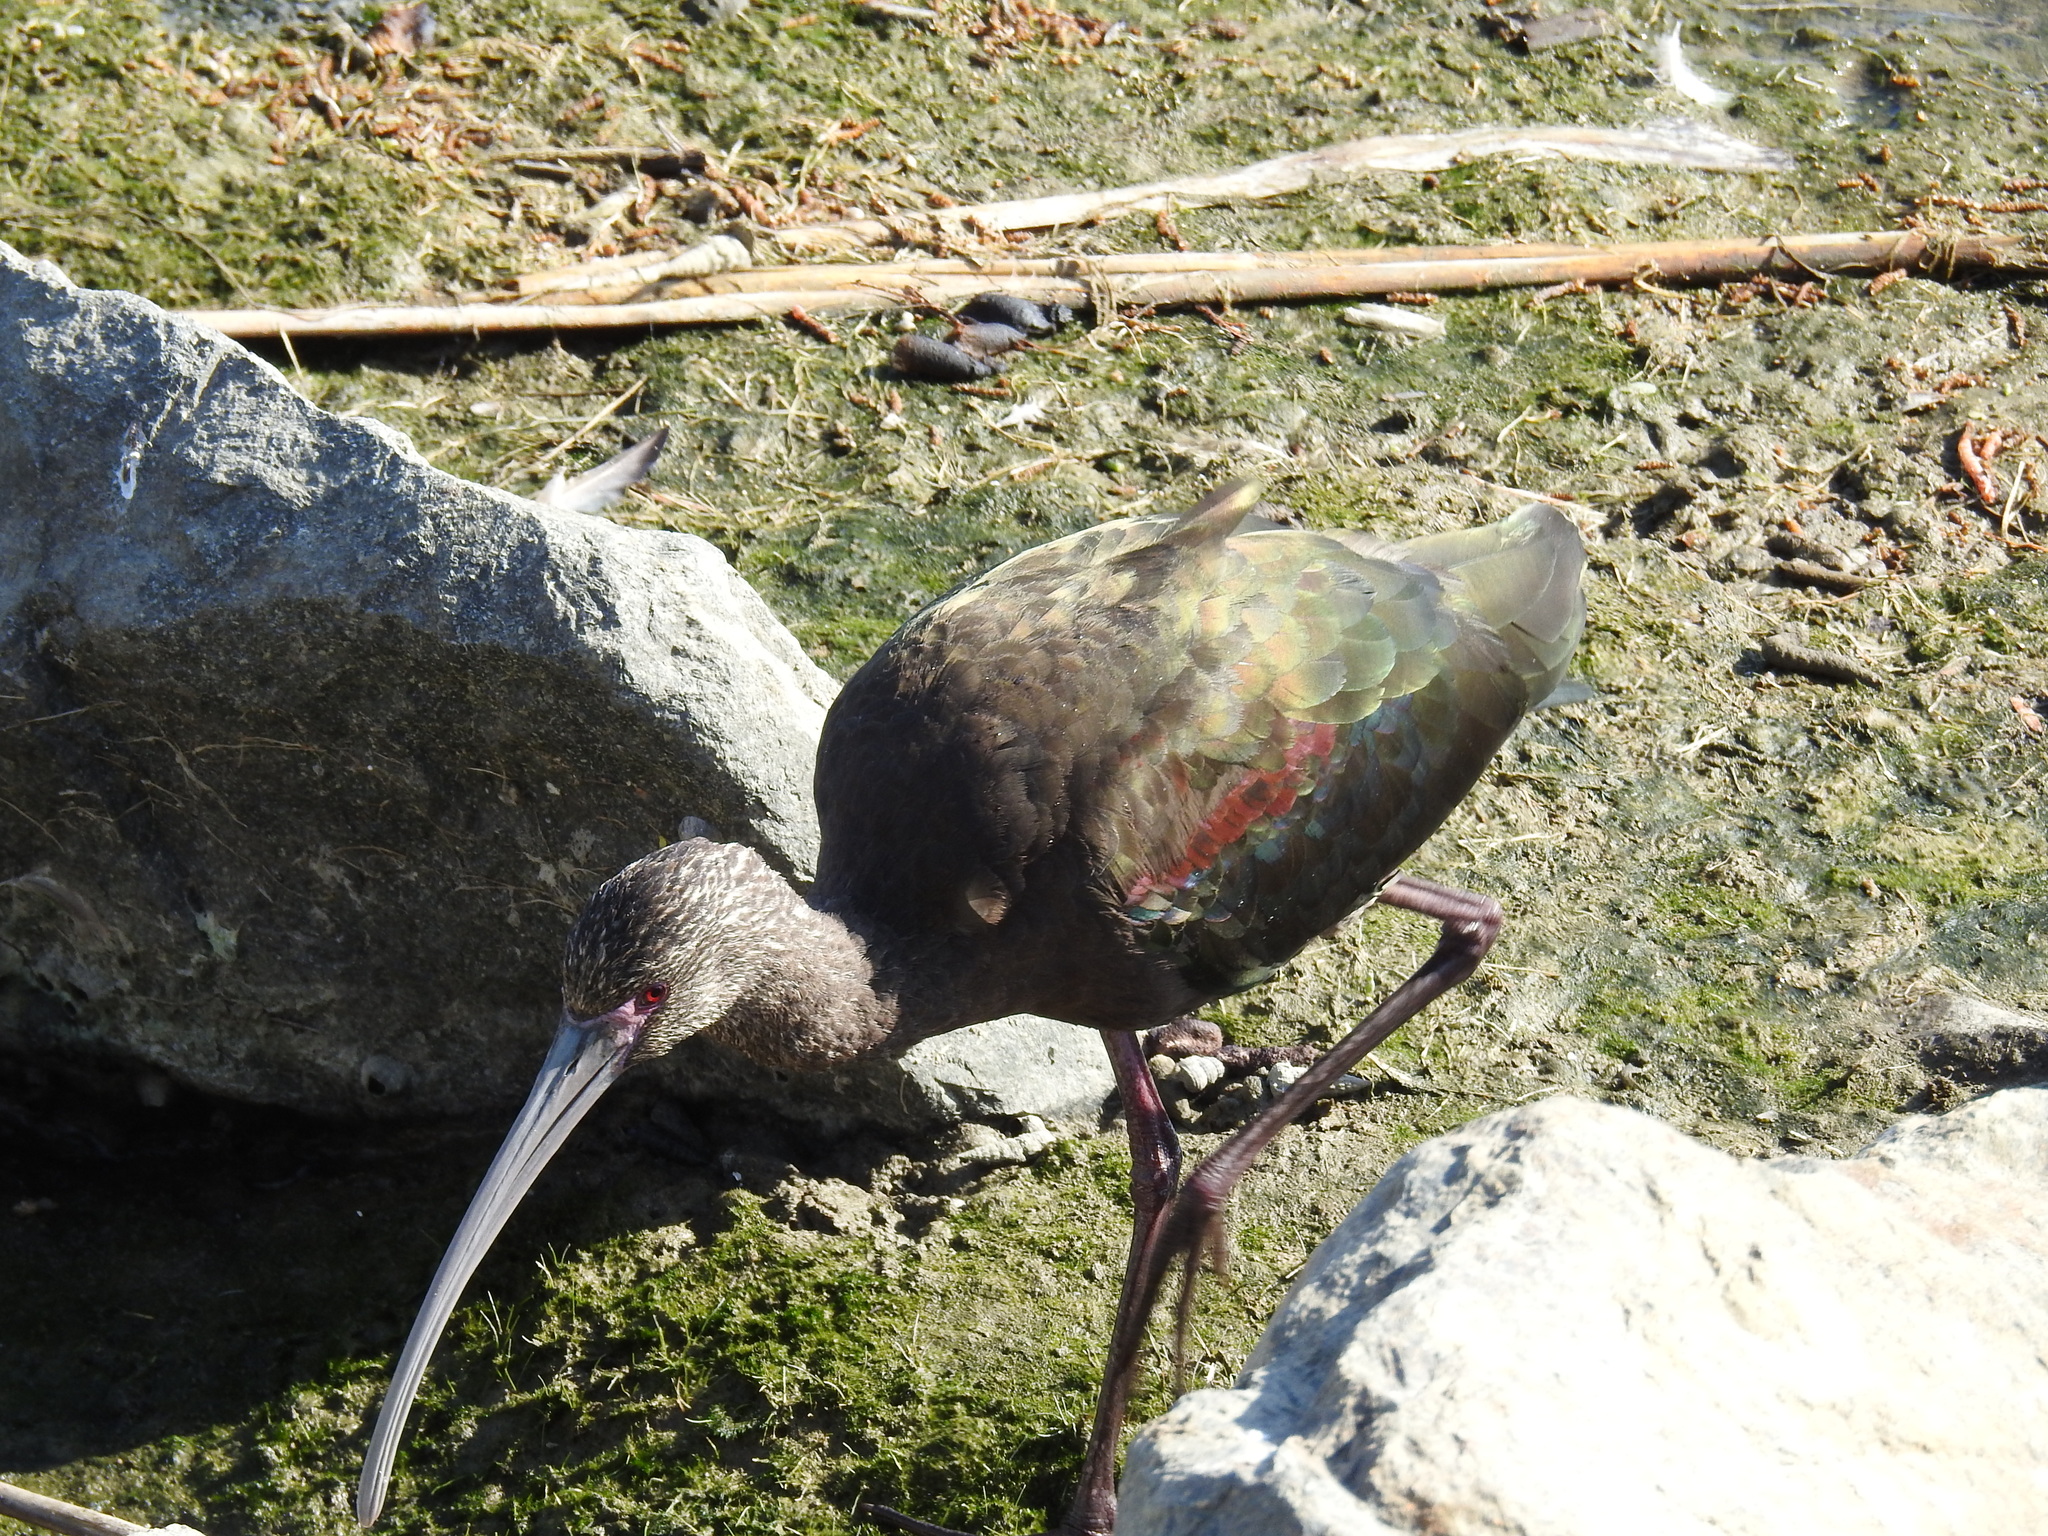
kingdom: Animalia
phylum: Chordata
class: Aves
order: Pelecaniformes
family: Threskiornithidae
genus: Plegadis
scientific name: Plegadis chihi
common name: White-faced ibis
